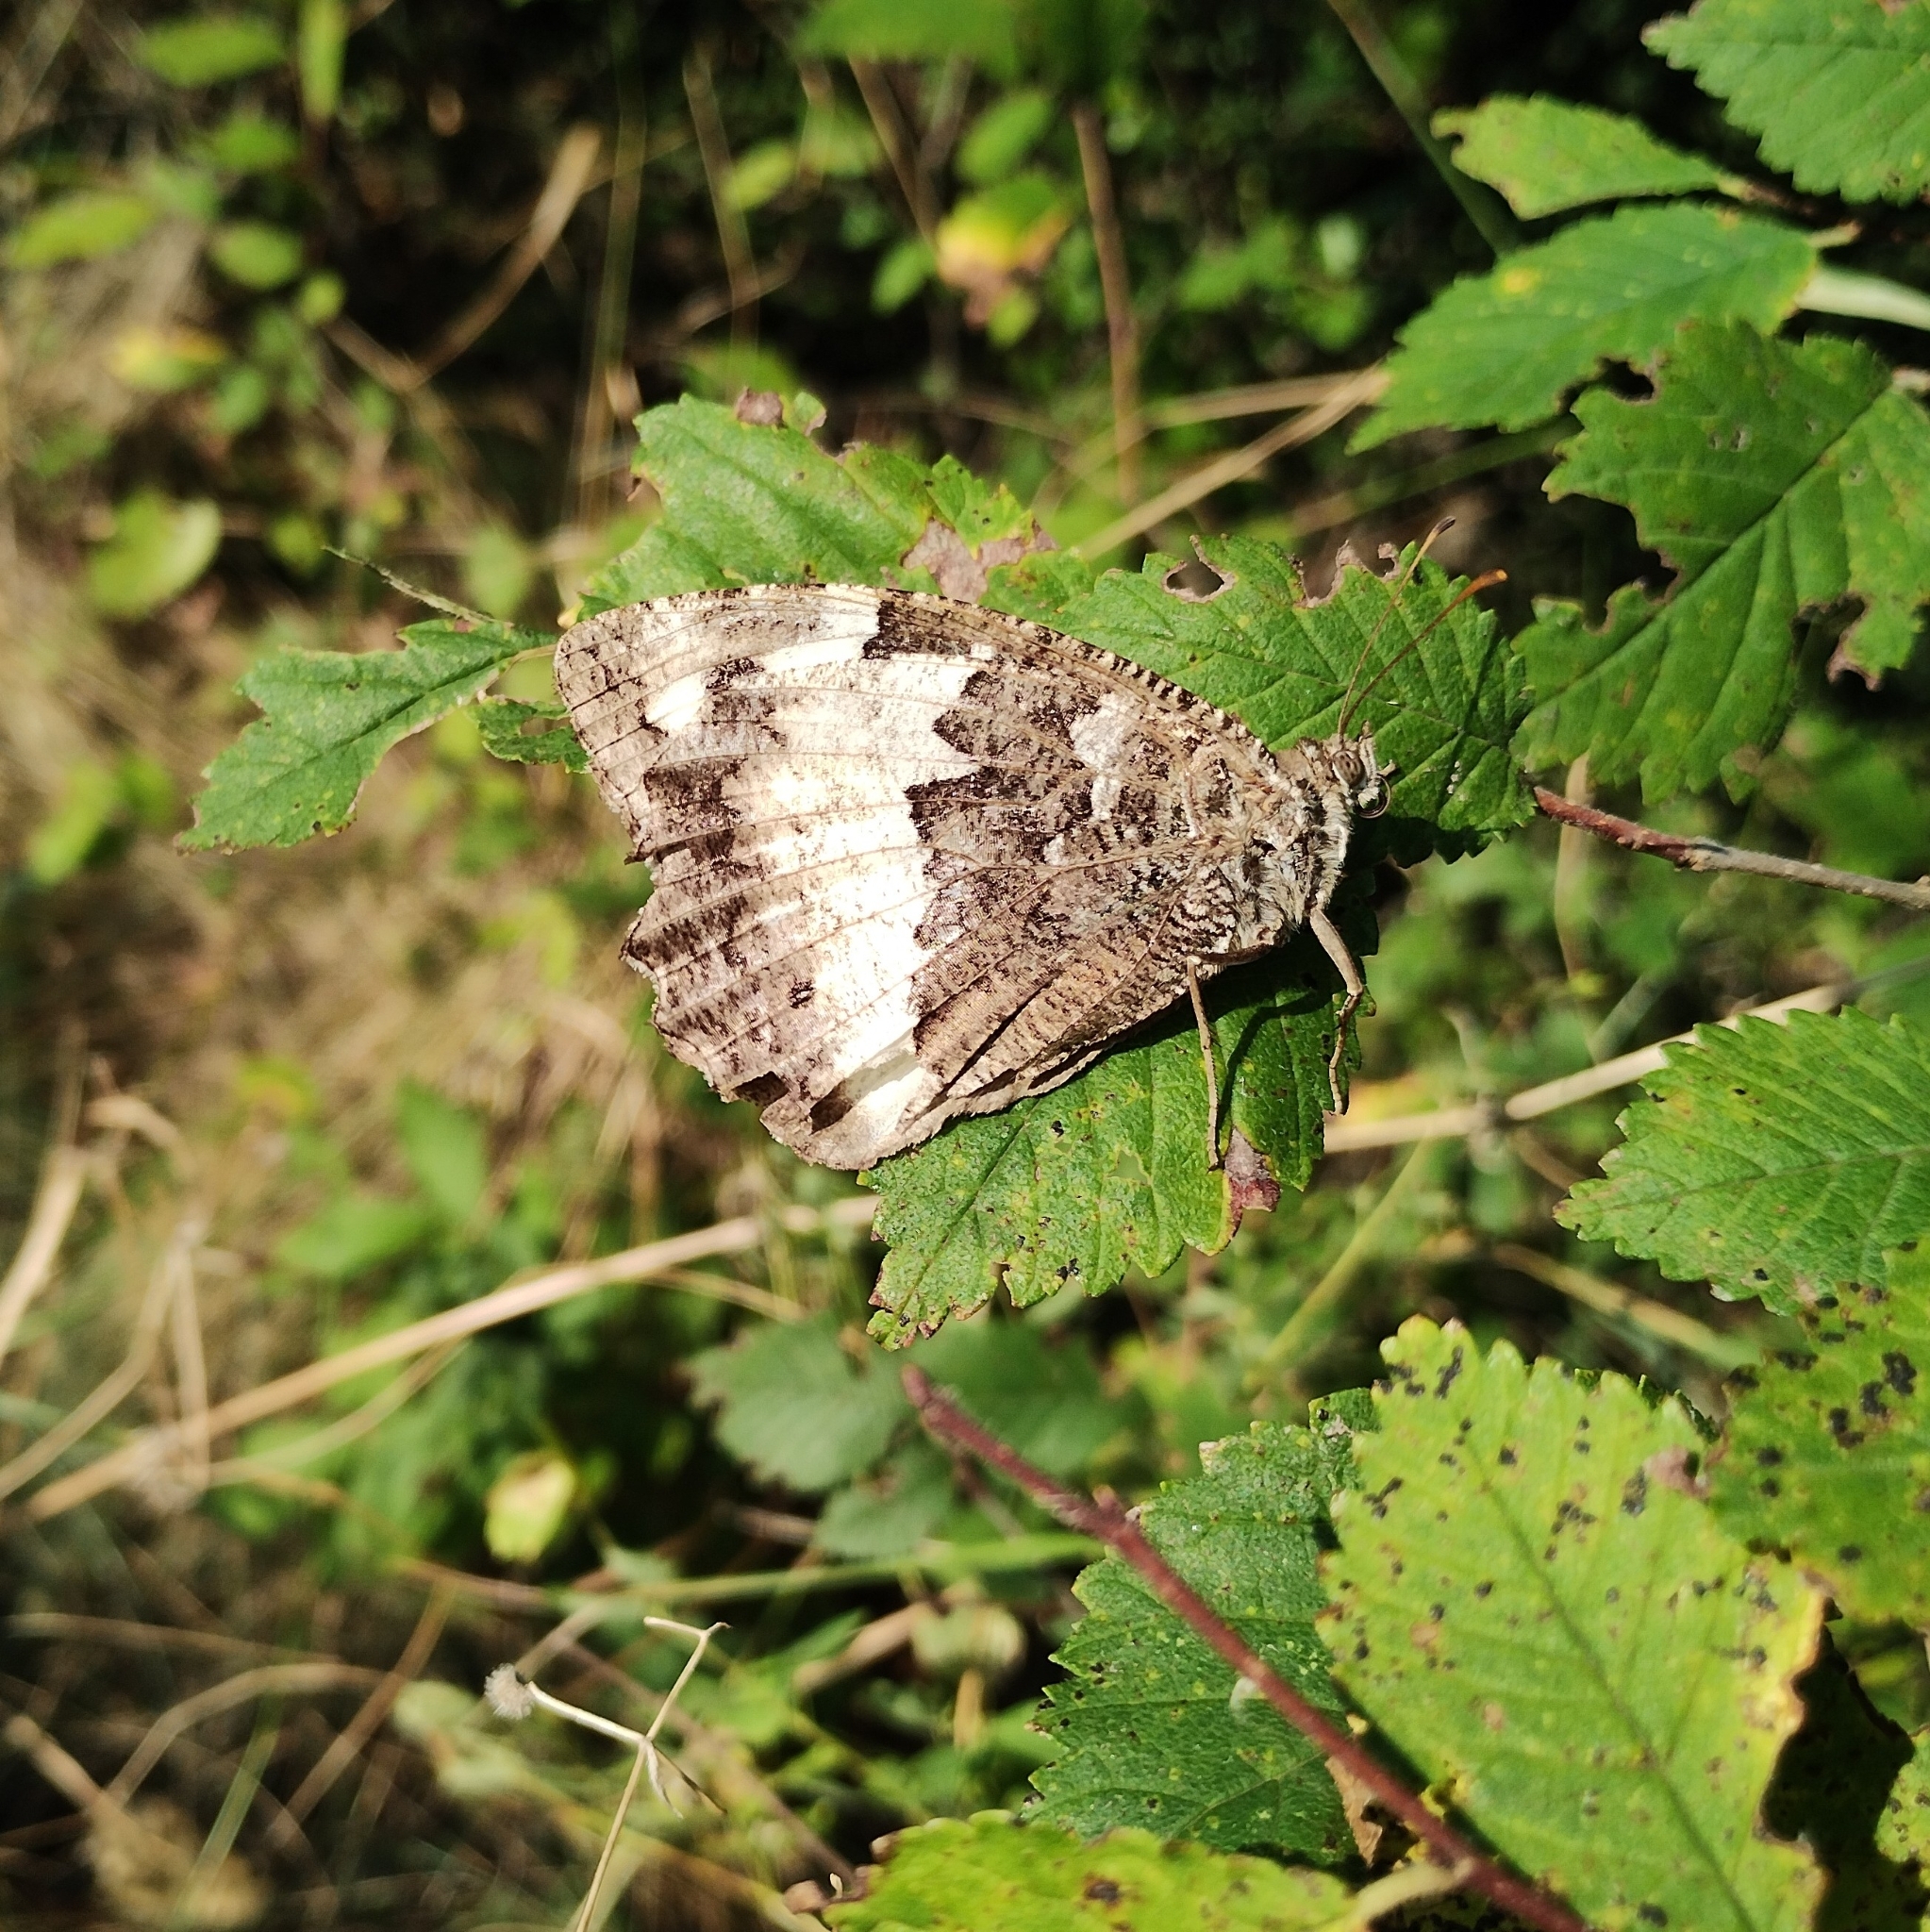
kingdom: Animalia
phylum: Arthropoda
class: Insecta
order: Lepidoptera
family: Lycaenidae
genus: Loweia
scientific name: Loweia tityrus
